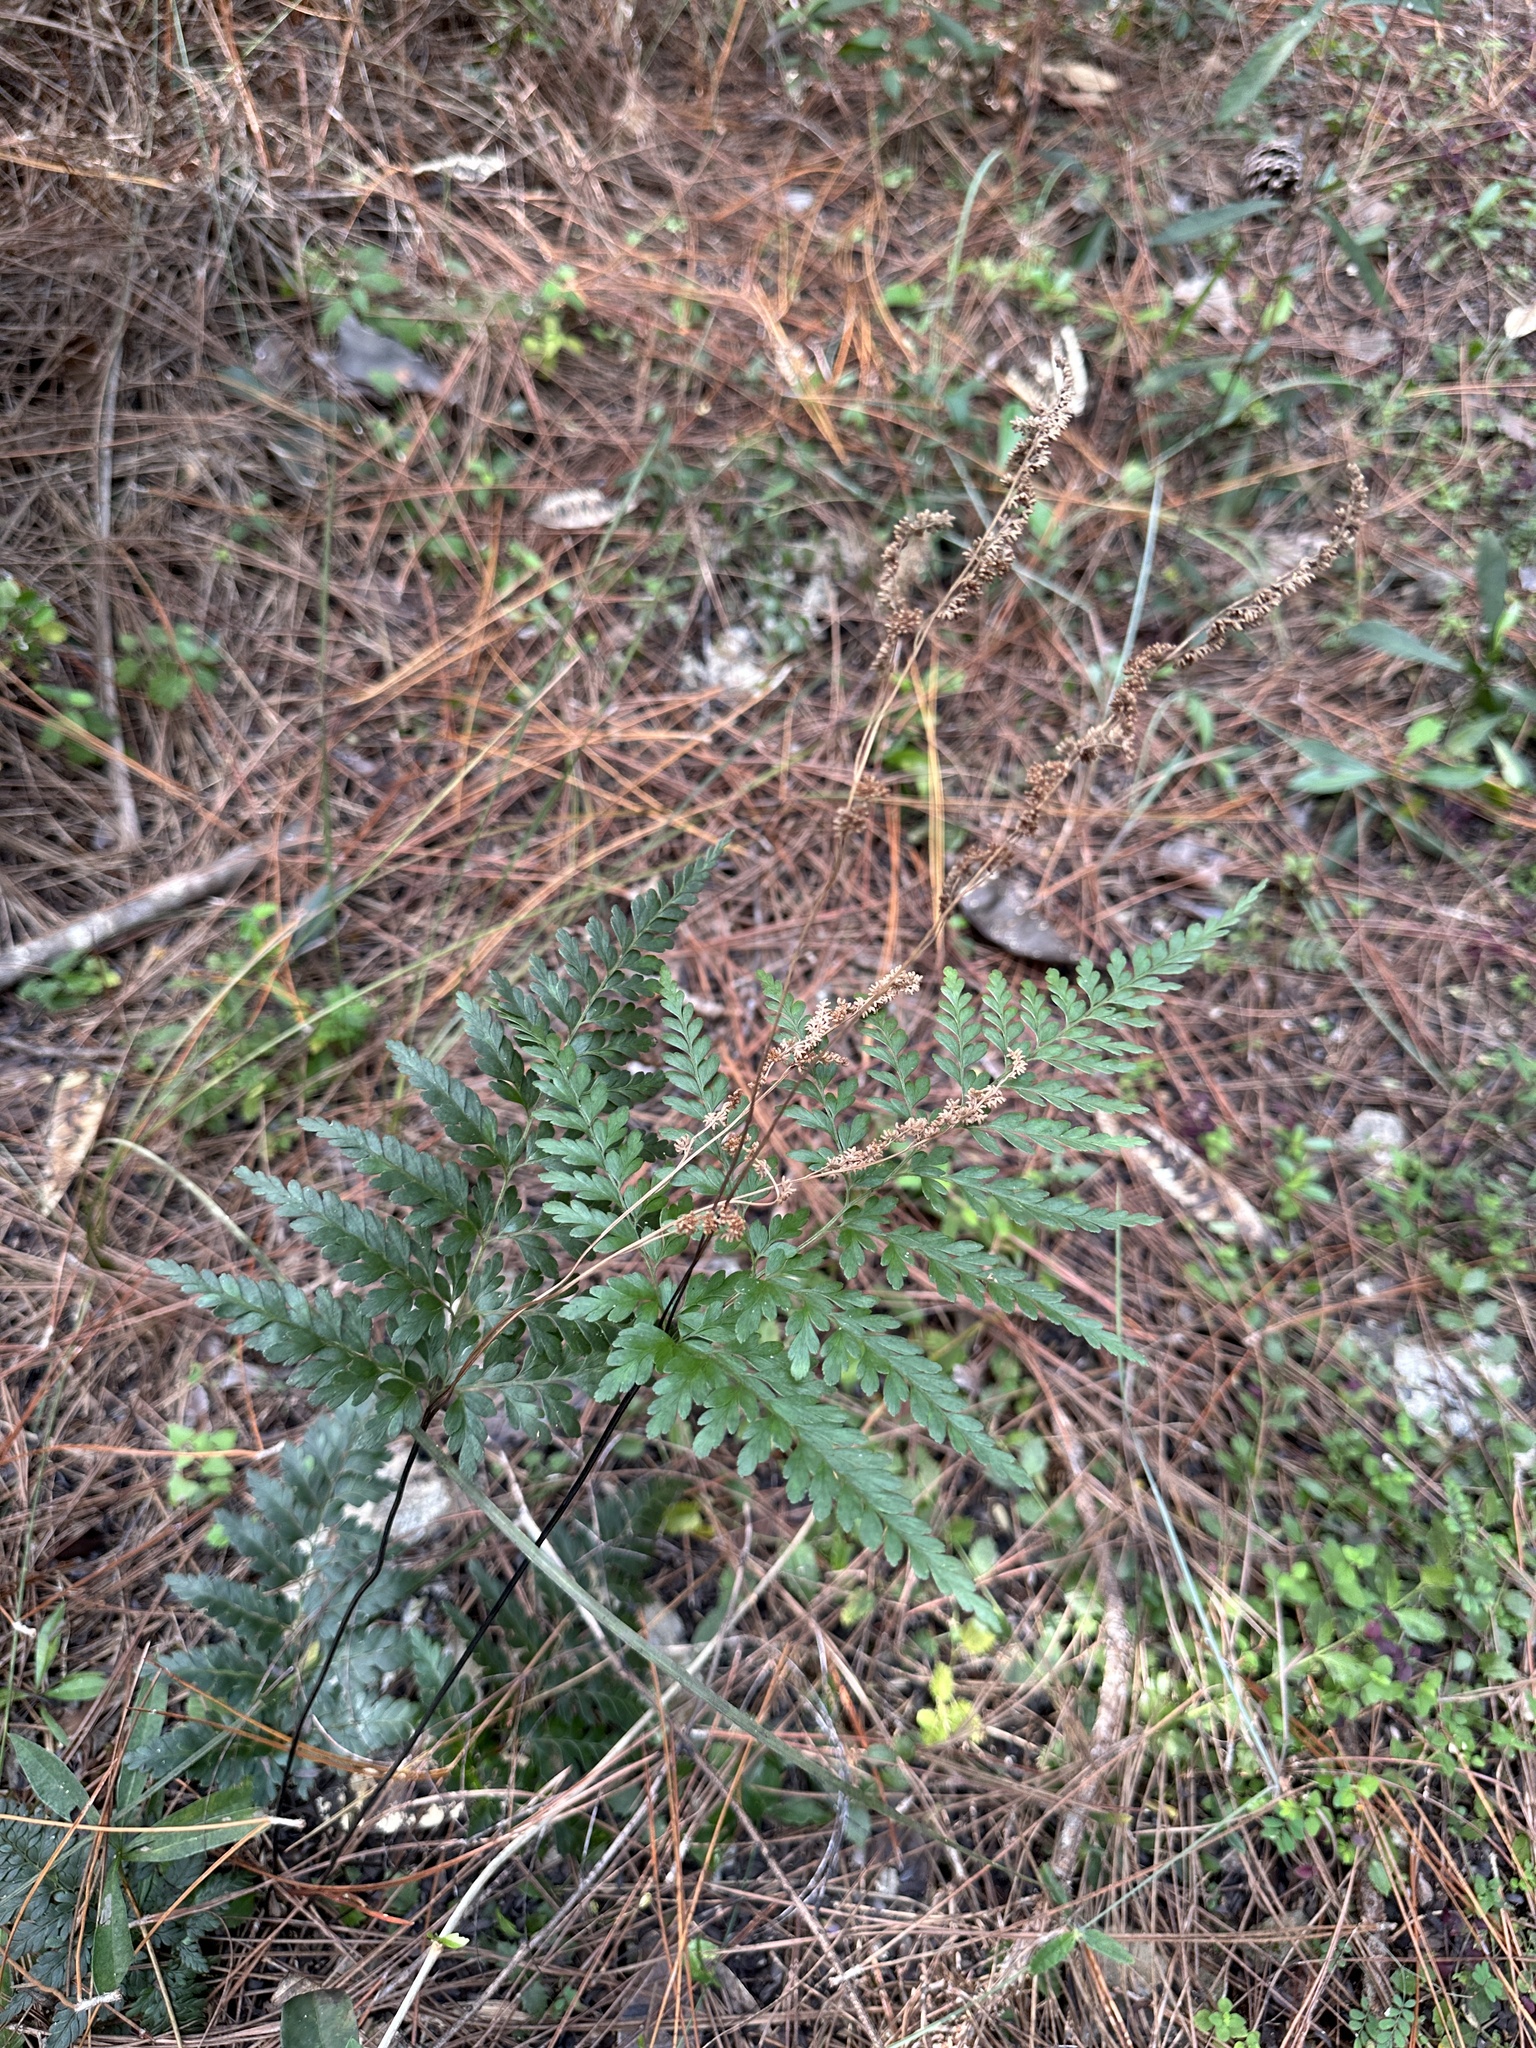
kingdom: Plantae
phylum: Tracheophyta
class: Polypodiopsida
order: Schizaeales
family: Anemiaceae
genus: Anemia
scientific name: Anemia adiantifolia
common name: Pine fern
